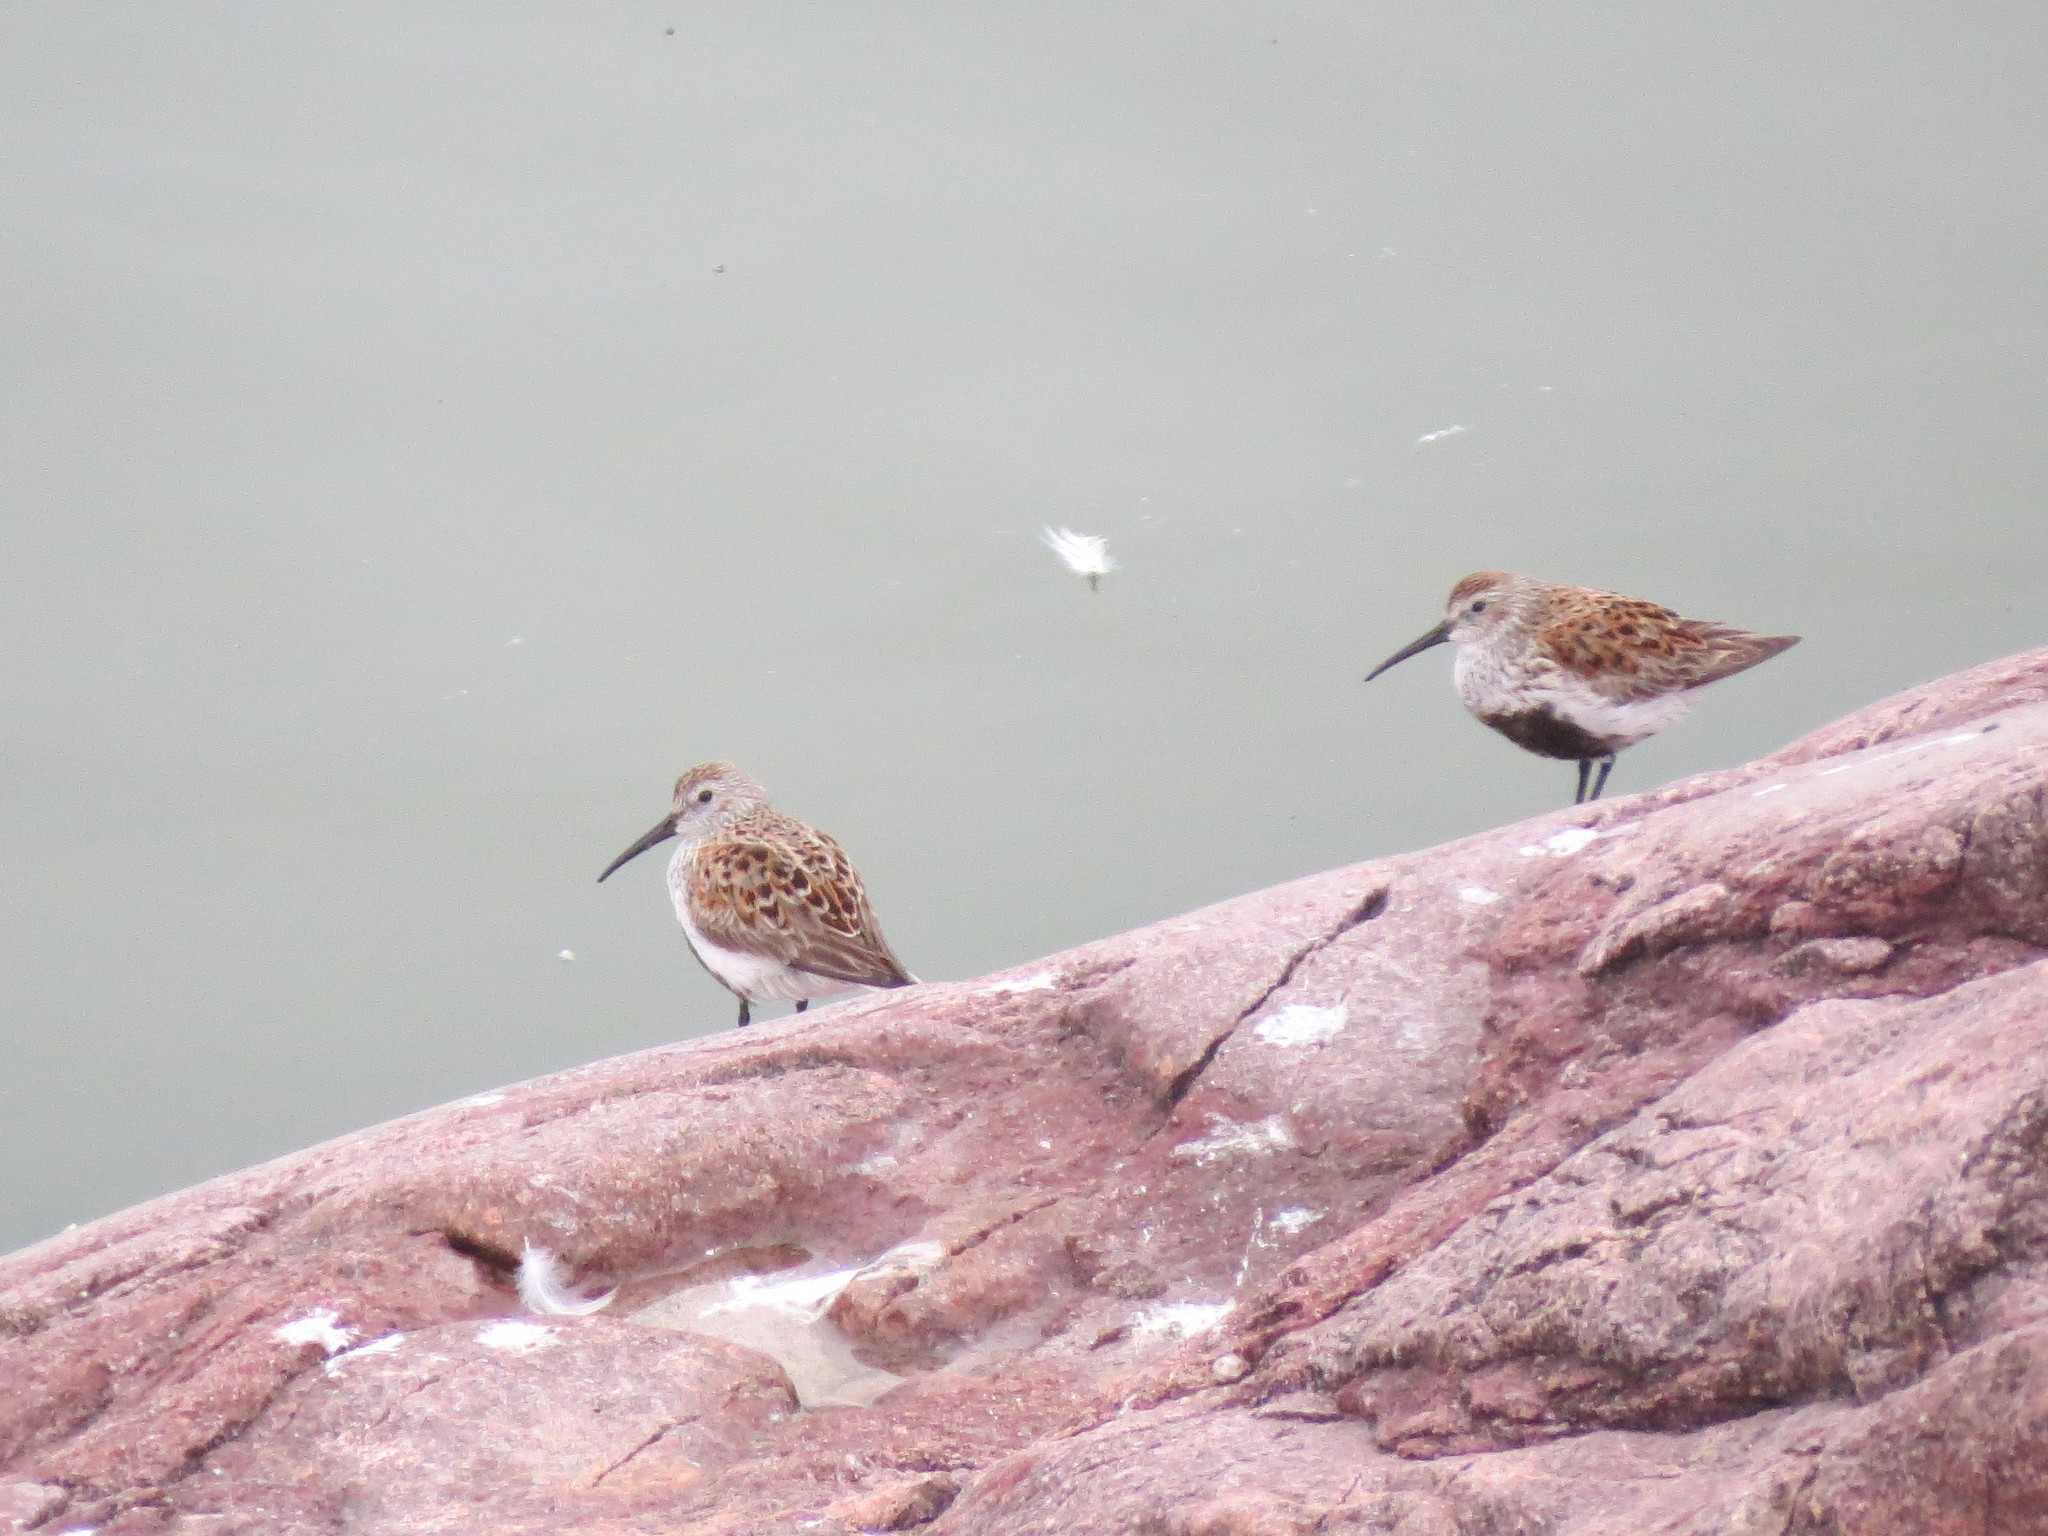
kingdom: Animalia
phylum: Chordata
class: Aves
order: Charadriiformes
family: Scolopacidae
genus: Calidris
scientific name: Calidris alpina
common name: Dunlin
